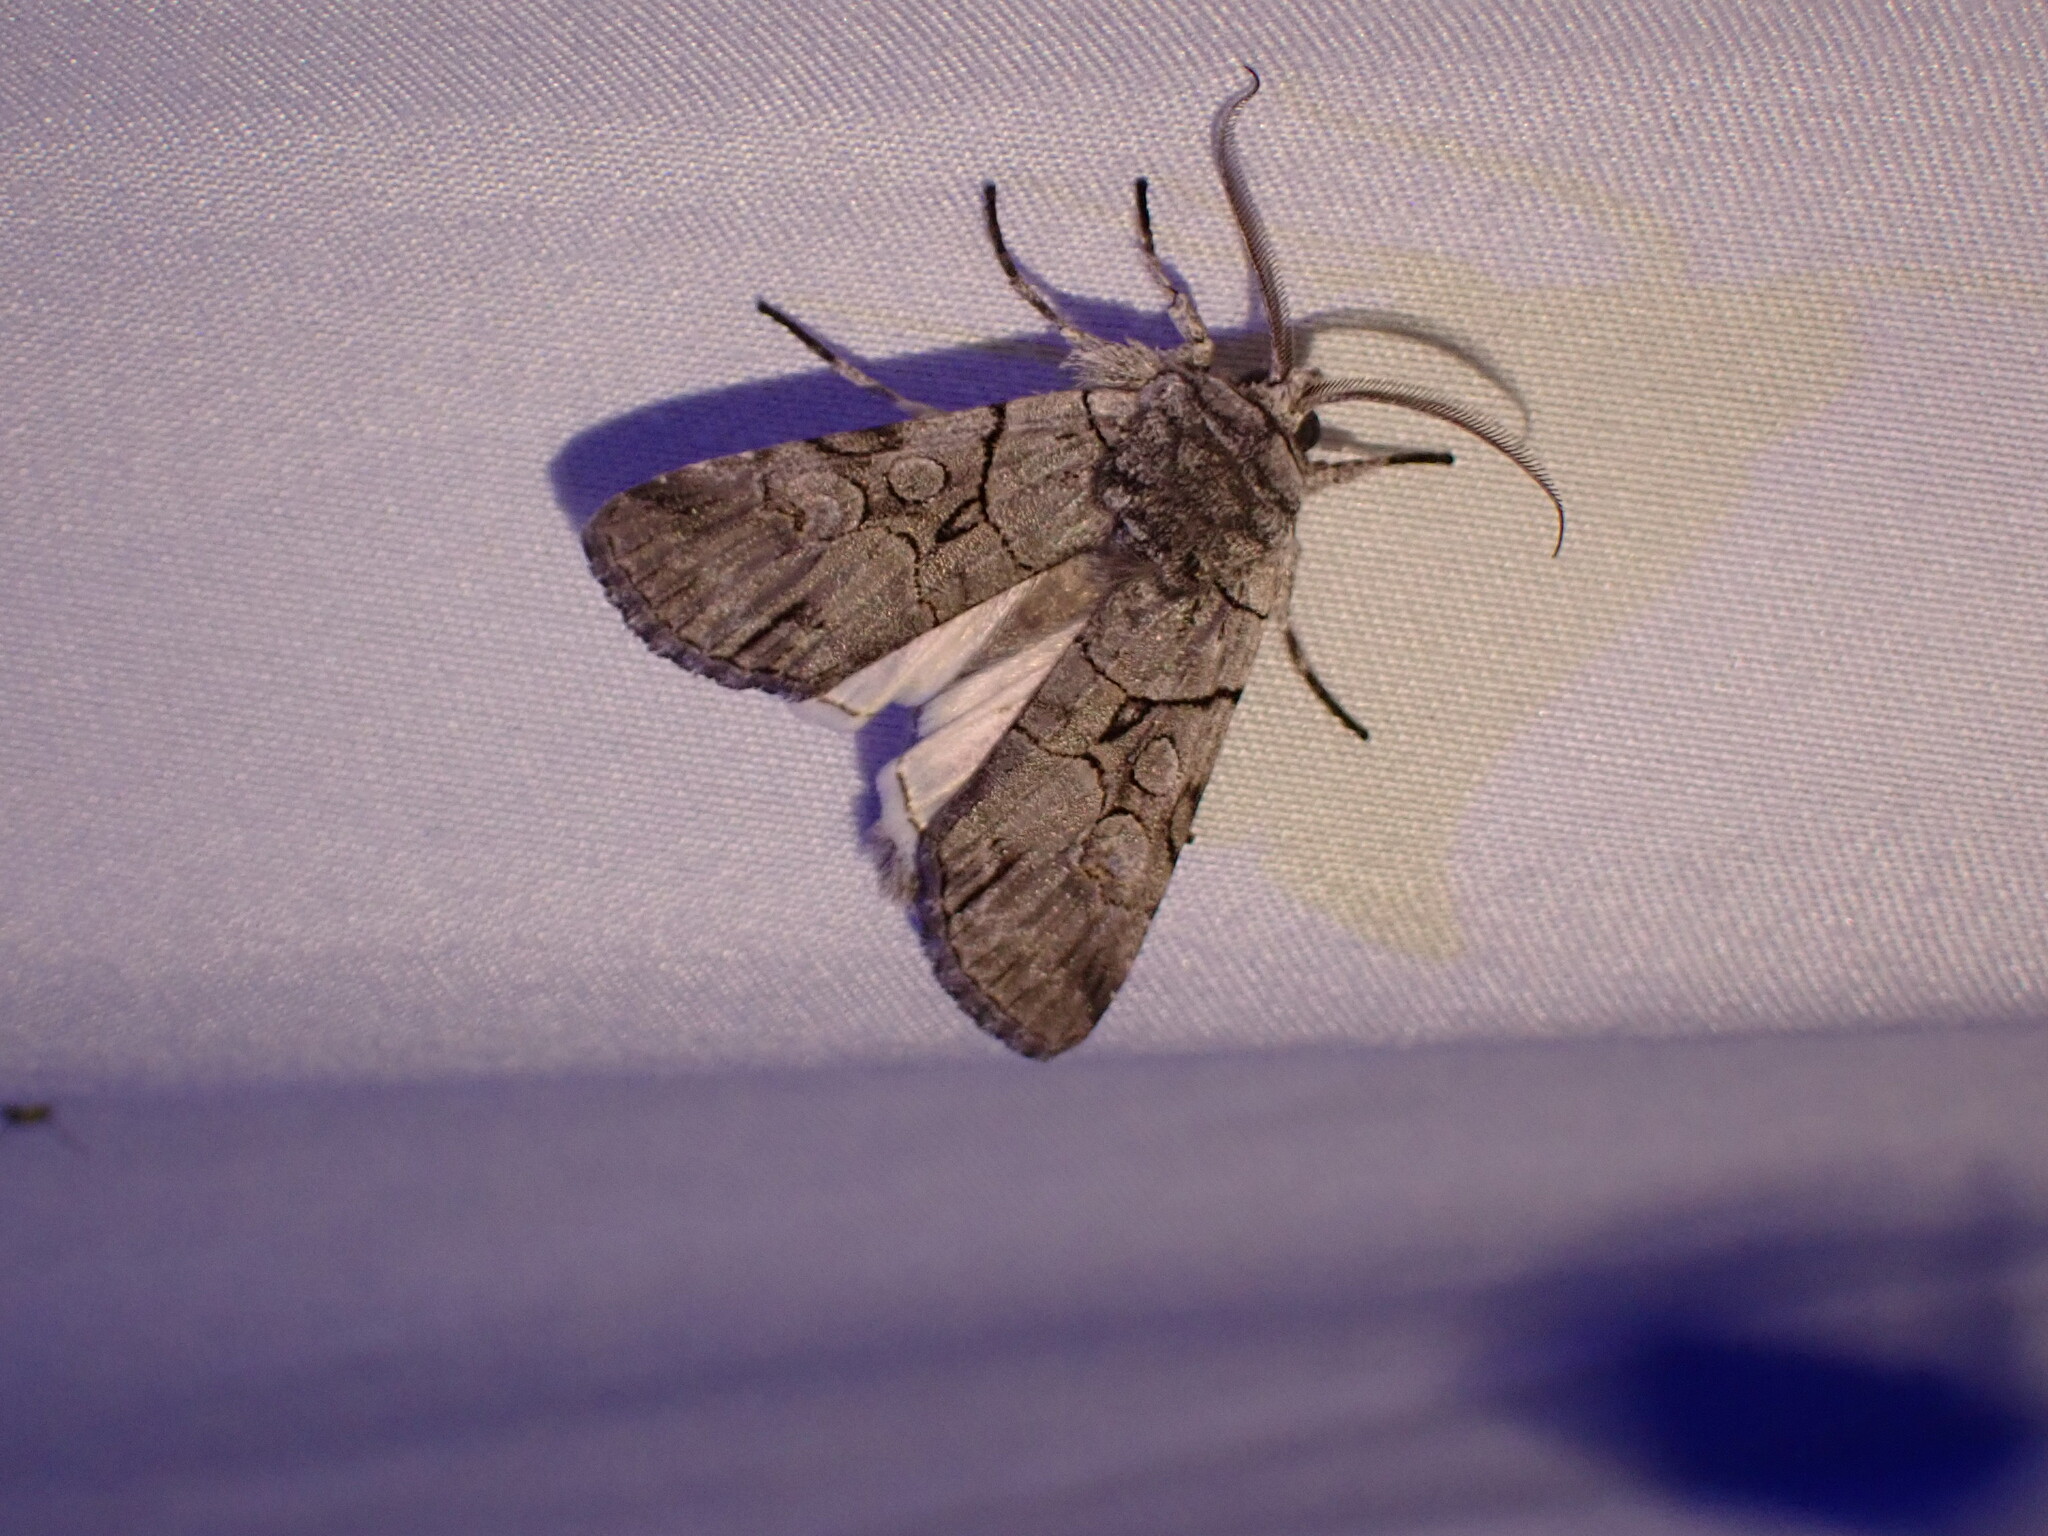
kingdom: Animalia
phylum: Arthropoda
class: Insecta
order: Lepidoptera
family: Noctuidae
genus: Sympistis
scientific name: Sympistis chionanthi
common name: Fringe-tree sallow
